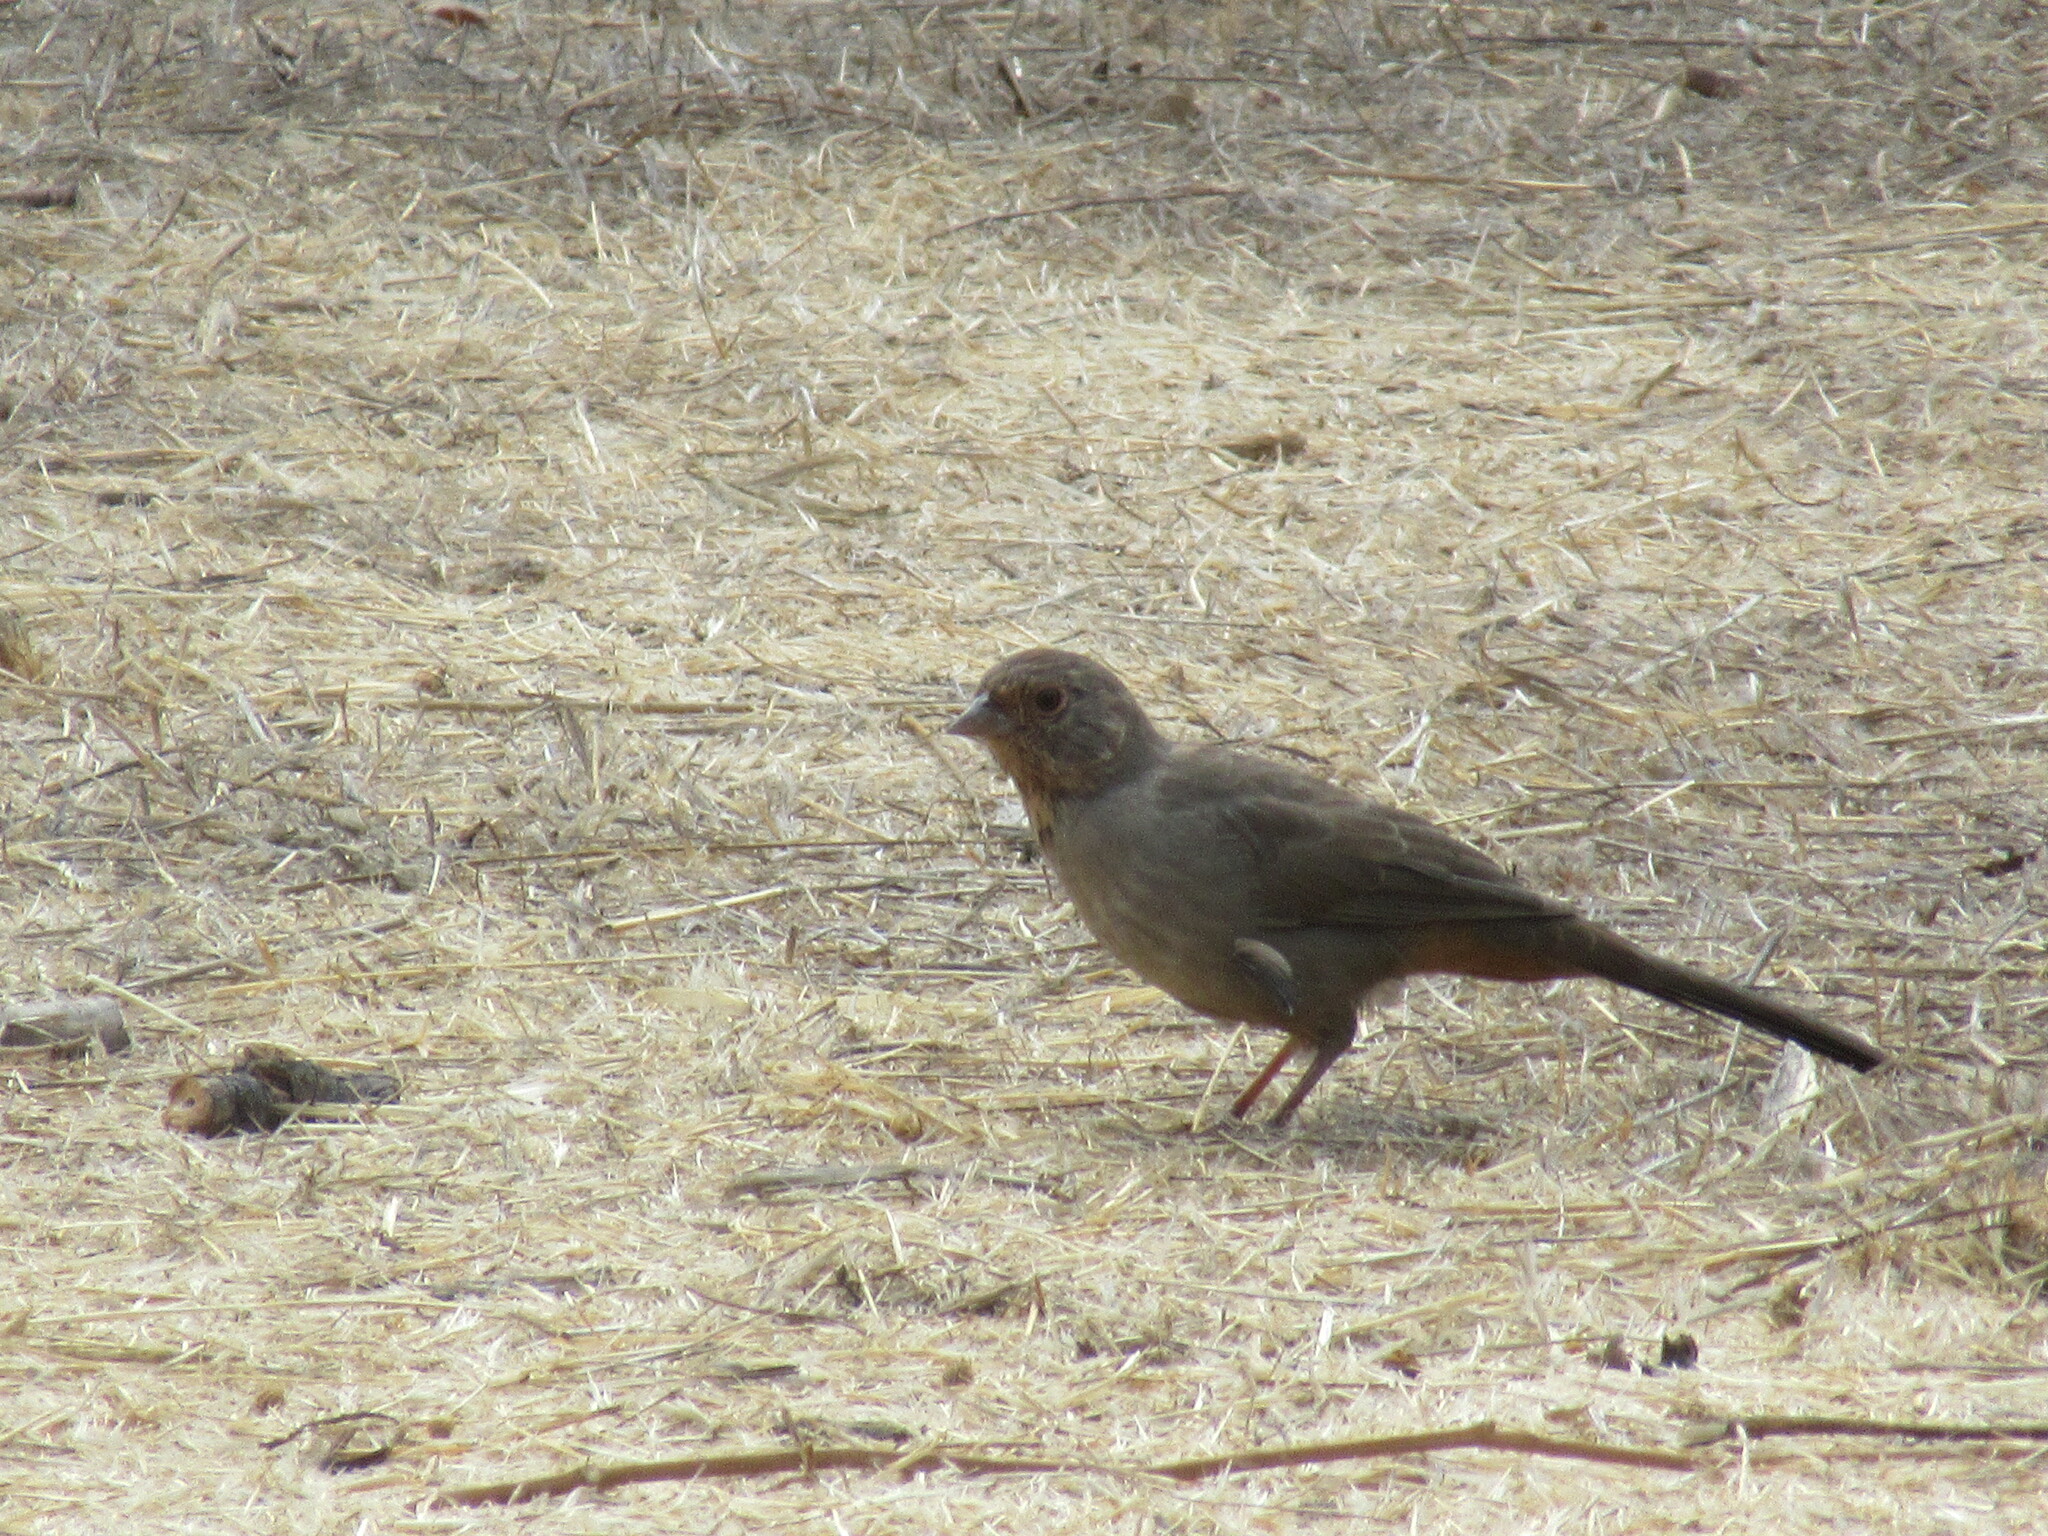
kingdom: Animalia
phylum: Chordata
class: Aves
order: Passeriformes
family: Passerellidae
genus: Melozone
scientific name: Melozone crissalis
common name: California towhee
